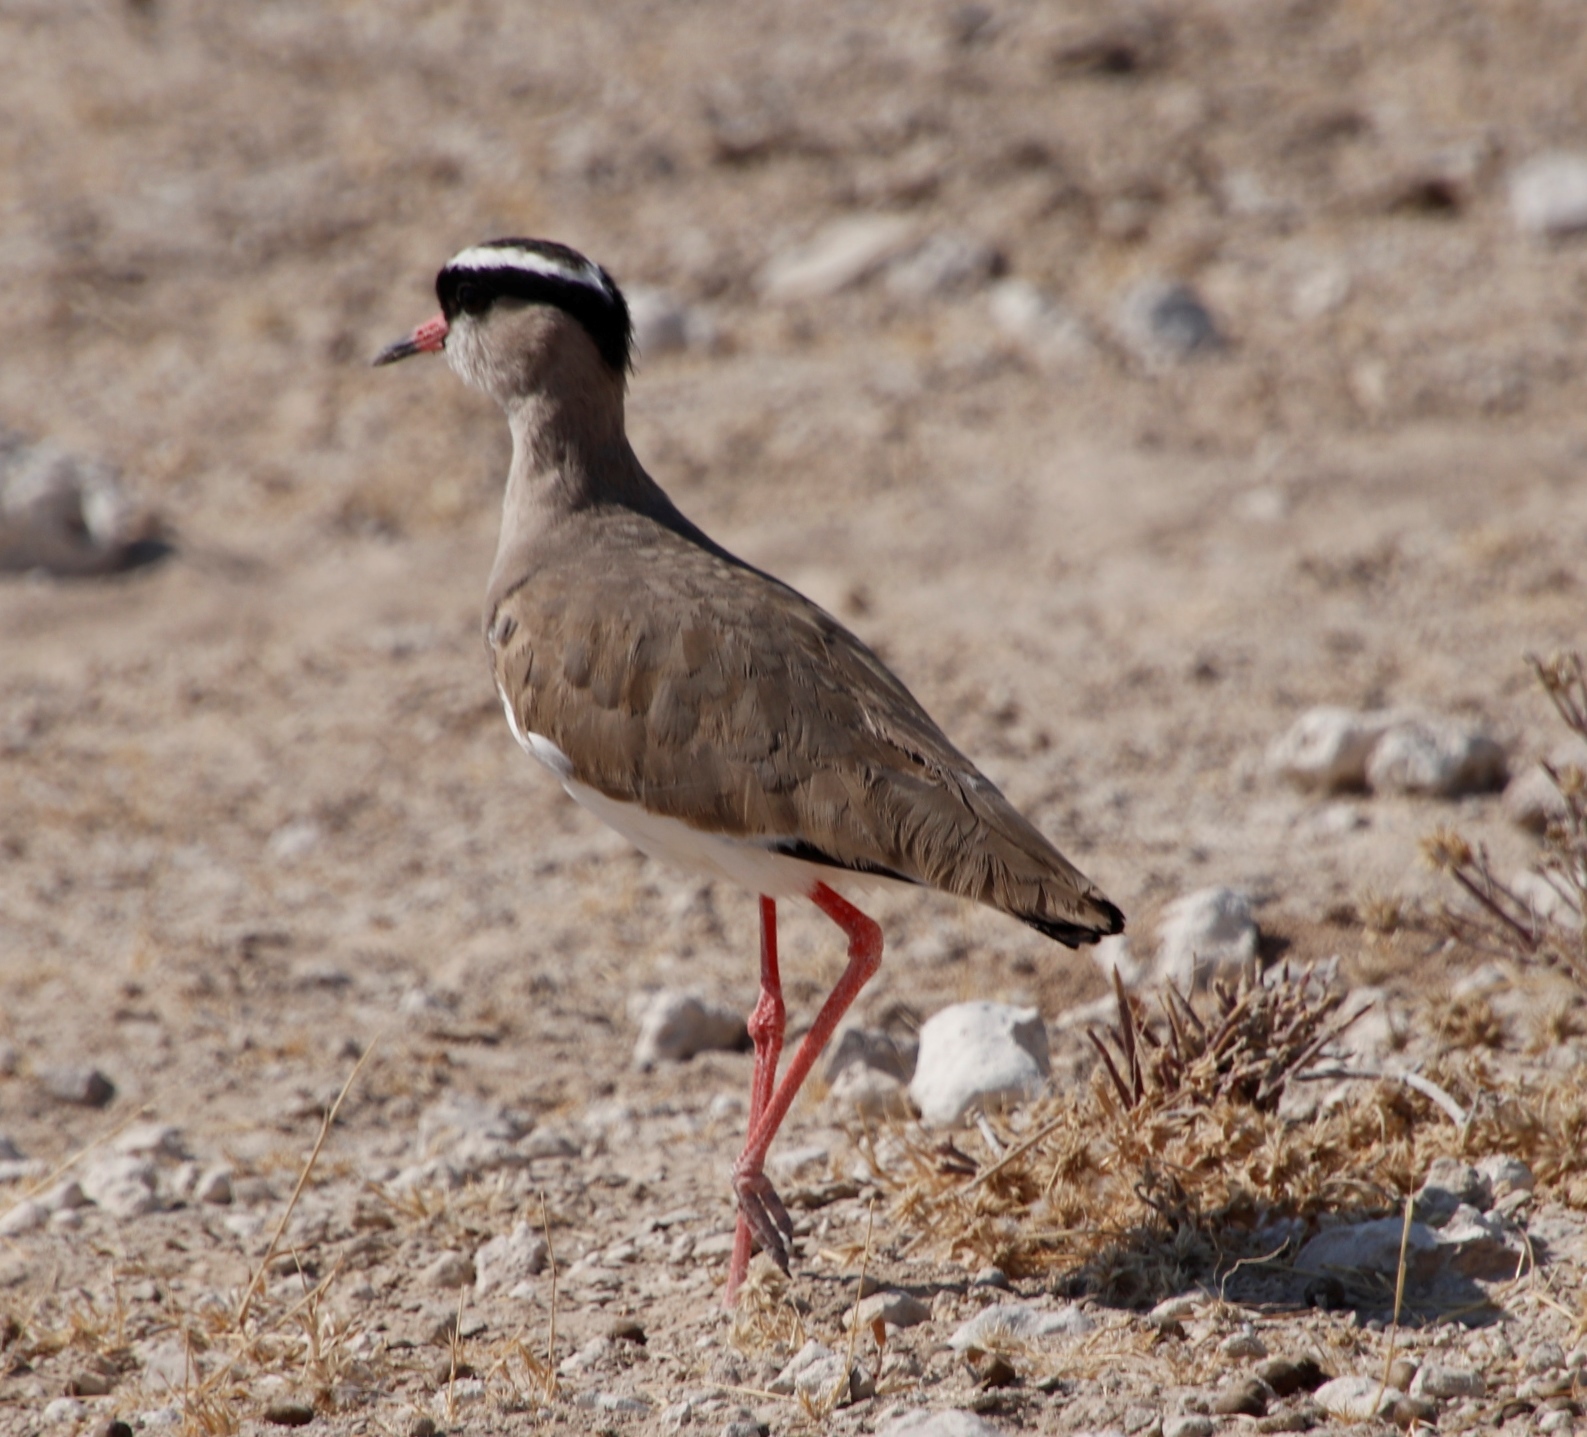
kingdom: Animalia
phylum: Chordata
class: Aves
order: Charadriiformes
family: Charadriidae
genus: Vanellus
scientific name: Vanellus coronatus
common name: Crowned lapwing
